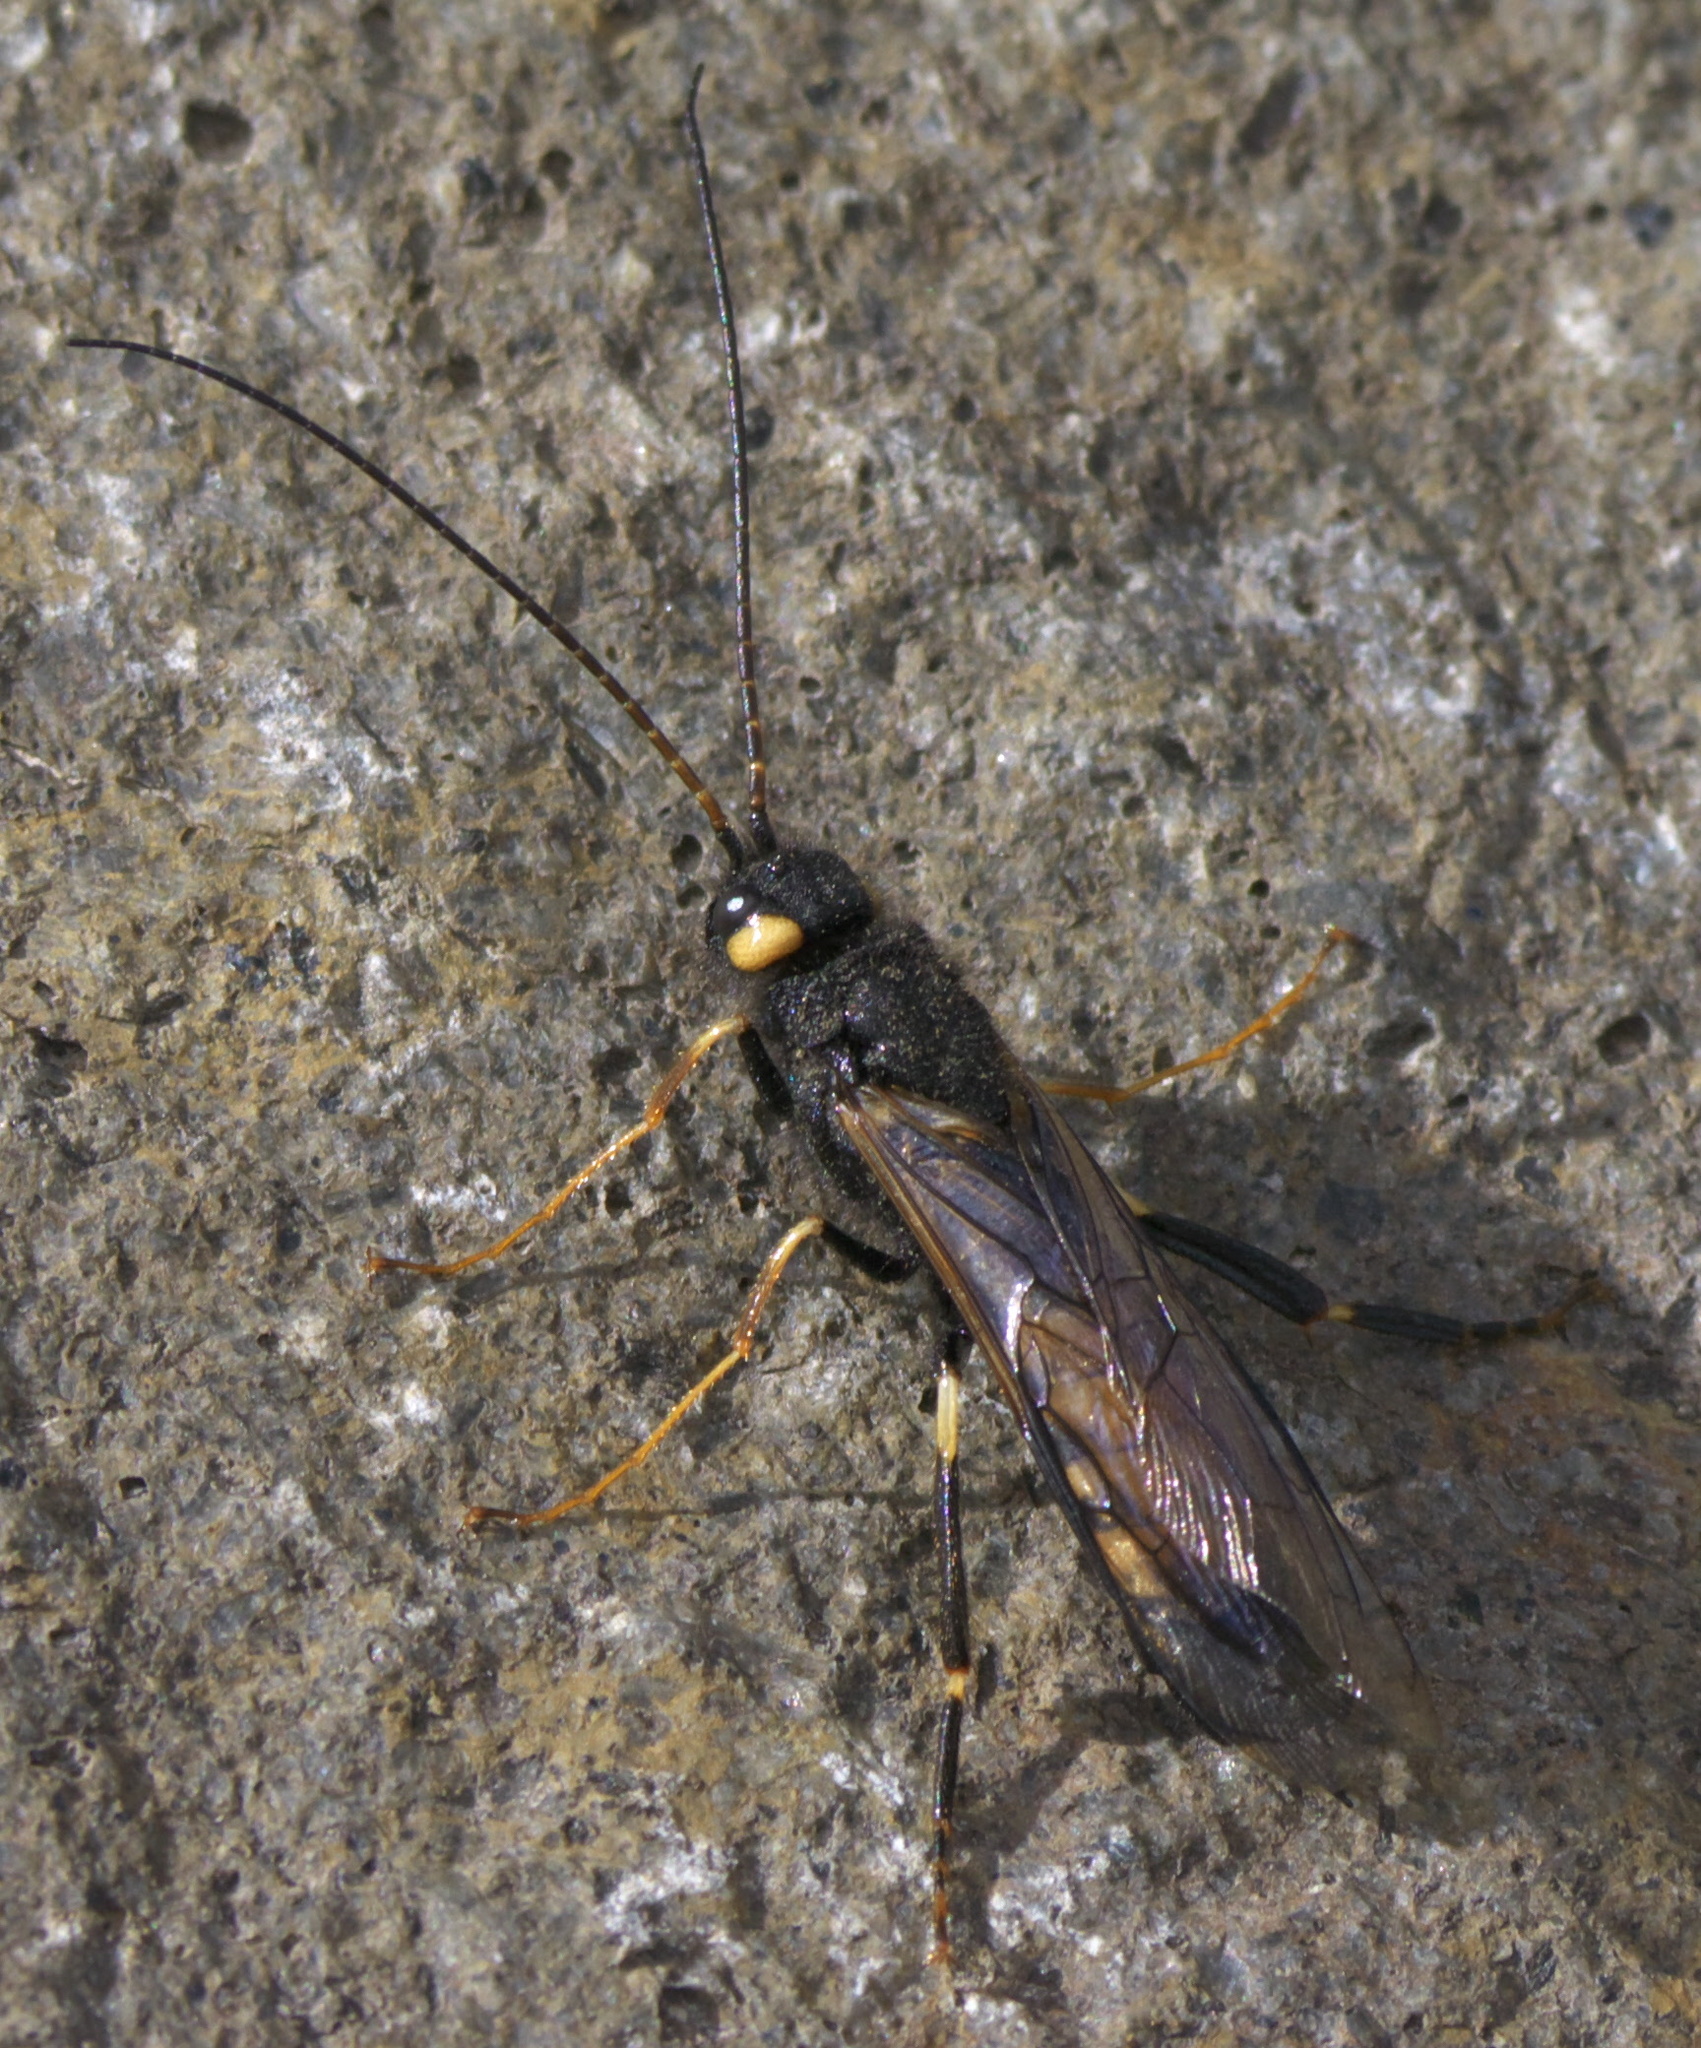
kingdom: Animalia
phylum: Arthropoda
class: Insecta
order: Hymenoptera
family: Siricidae
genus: Urocerus
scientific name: Urocerus flavicornis
